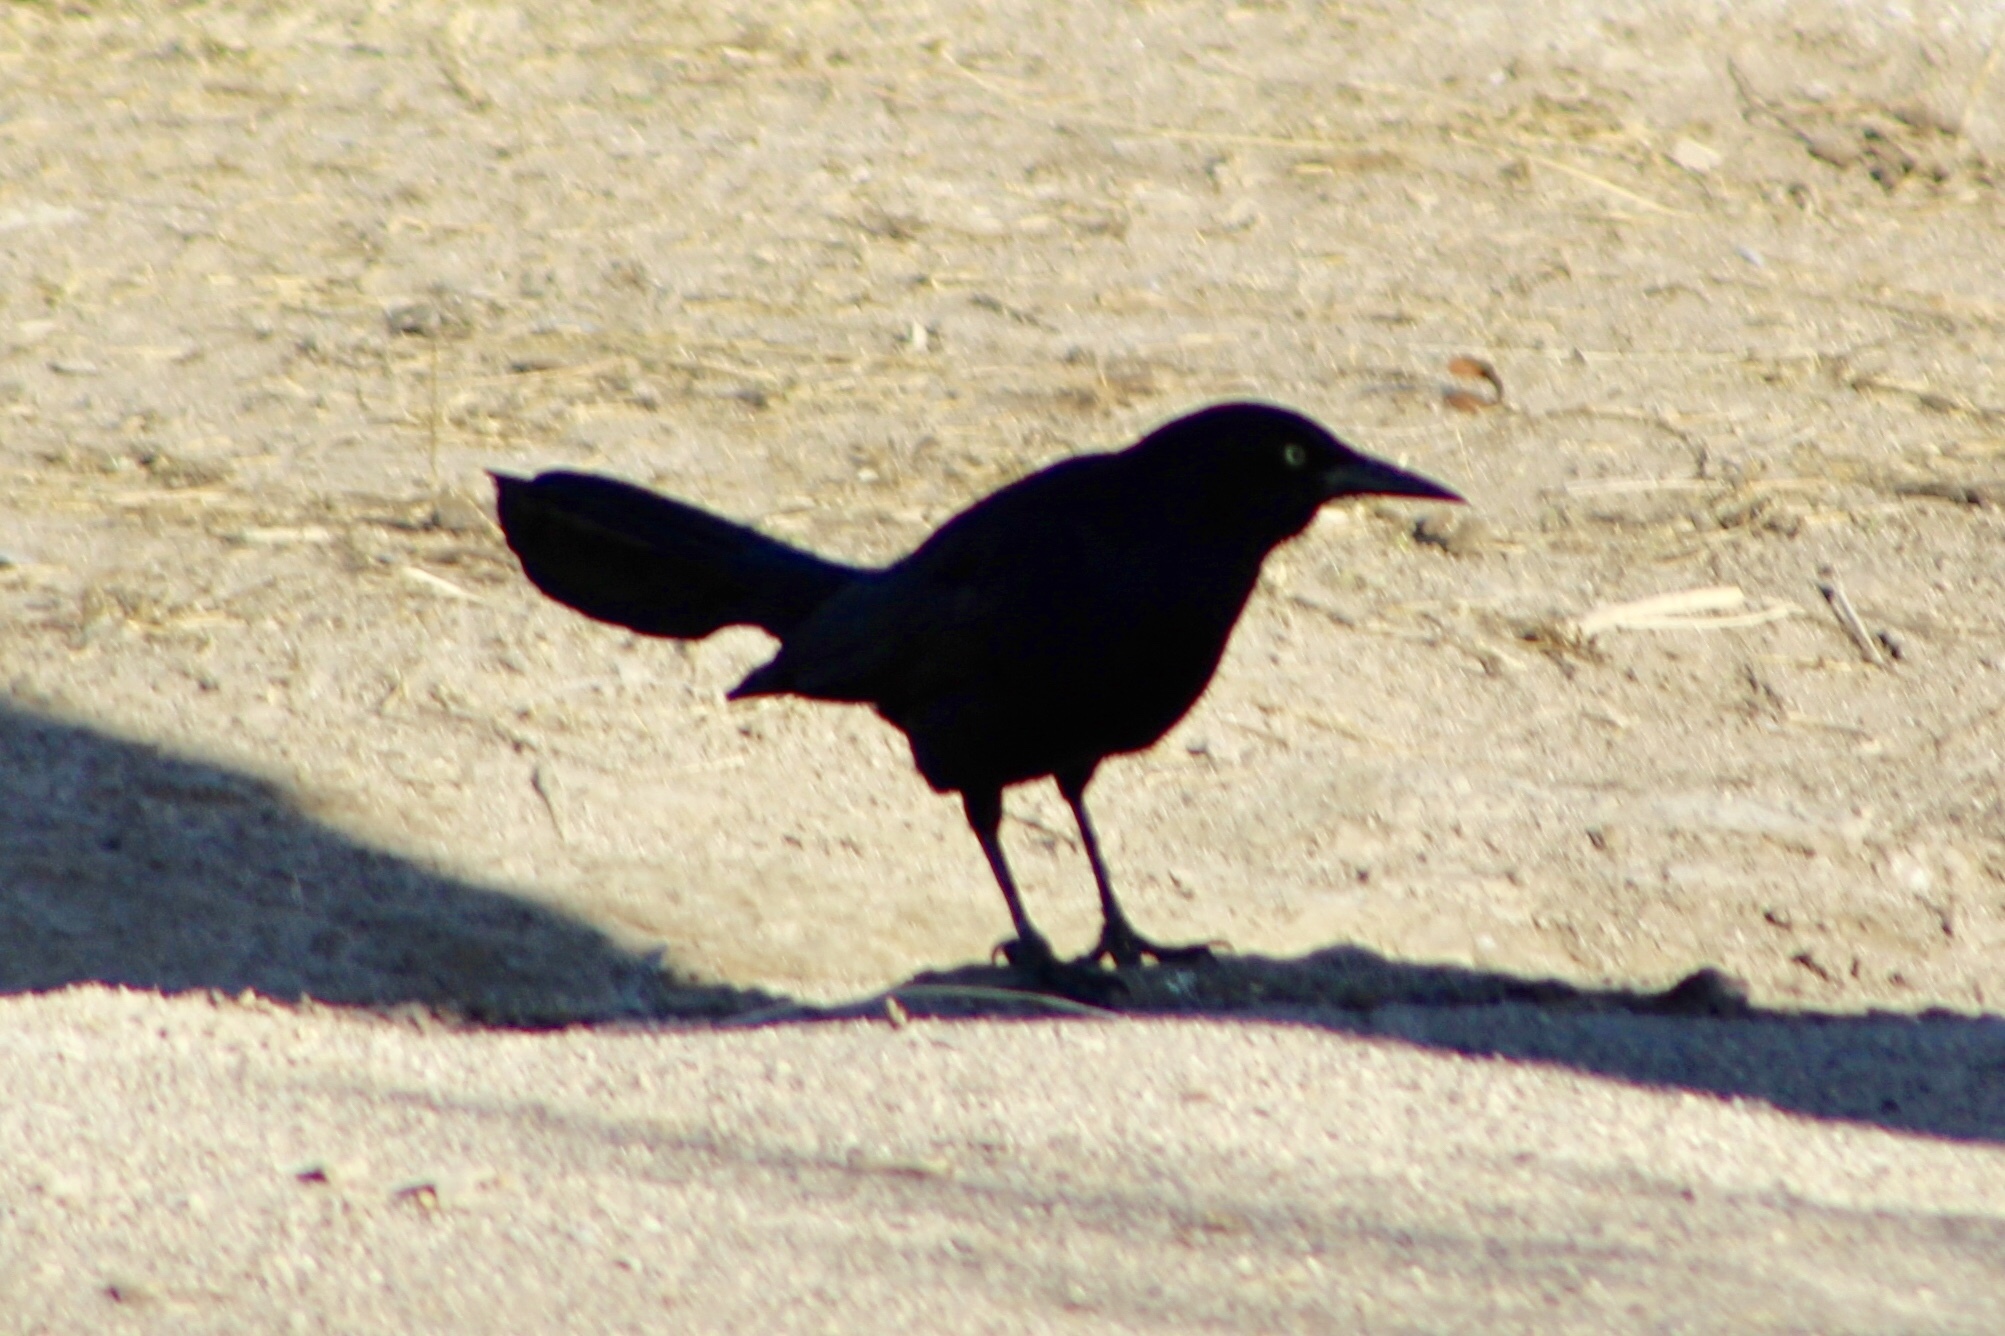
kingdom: Animalia
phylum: Chordata
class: Aves
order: Passeriformes
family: Icteridae
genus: Quiscalus
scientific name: Quiscalus mexicanus
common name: Great-tailed grackle
